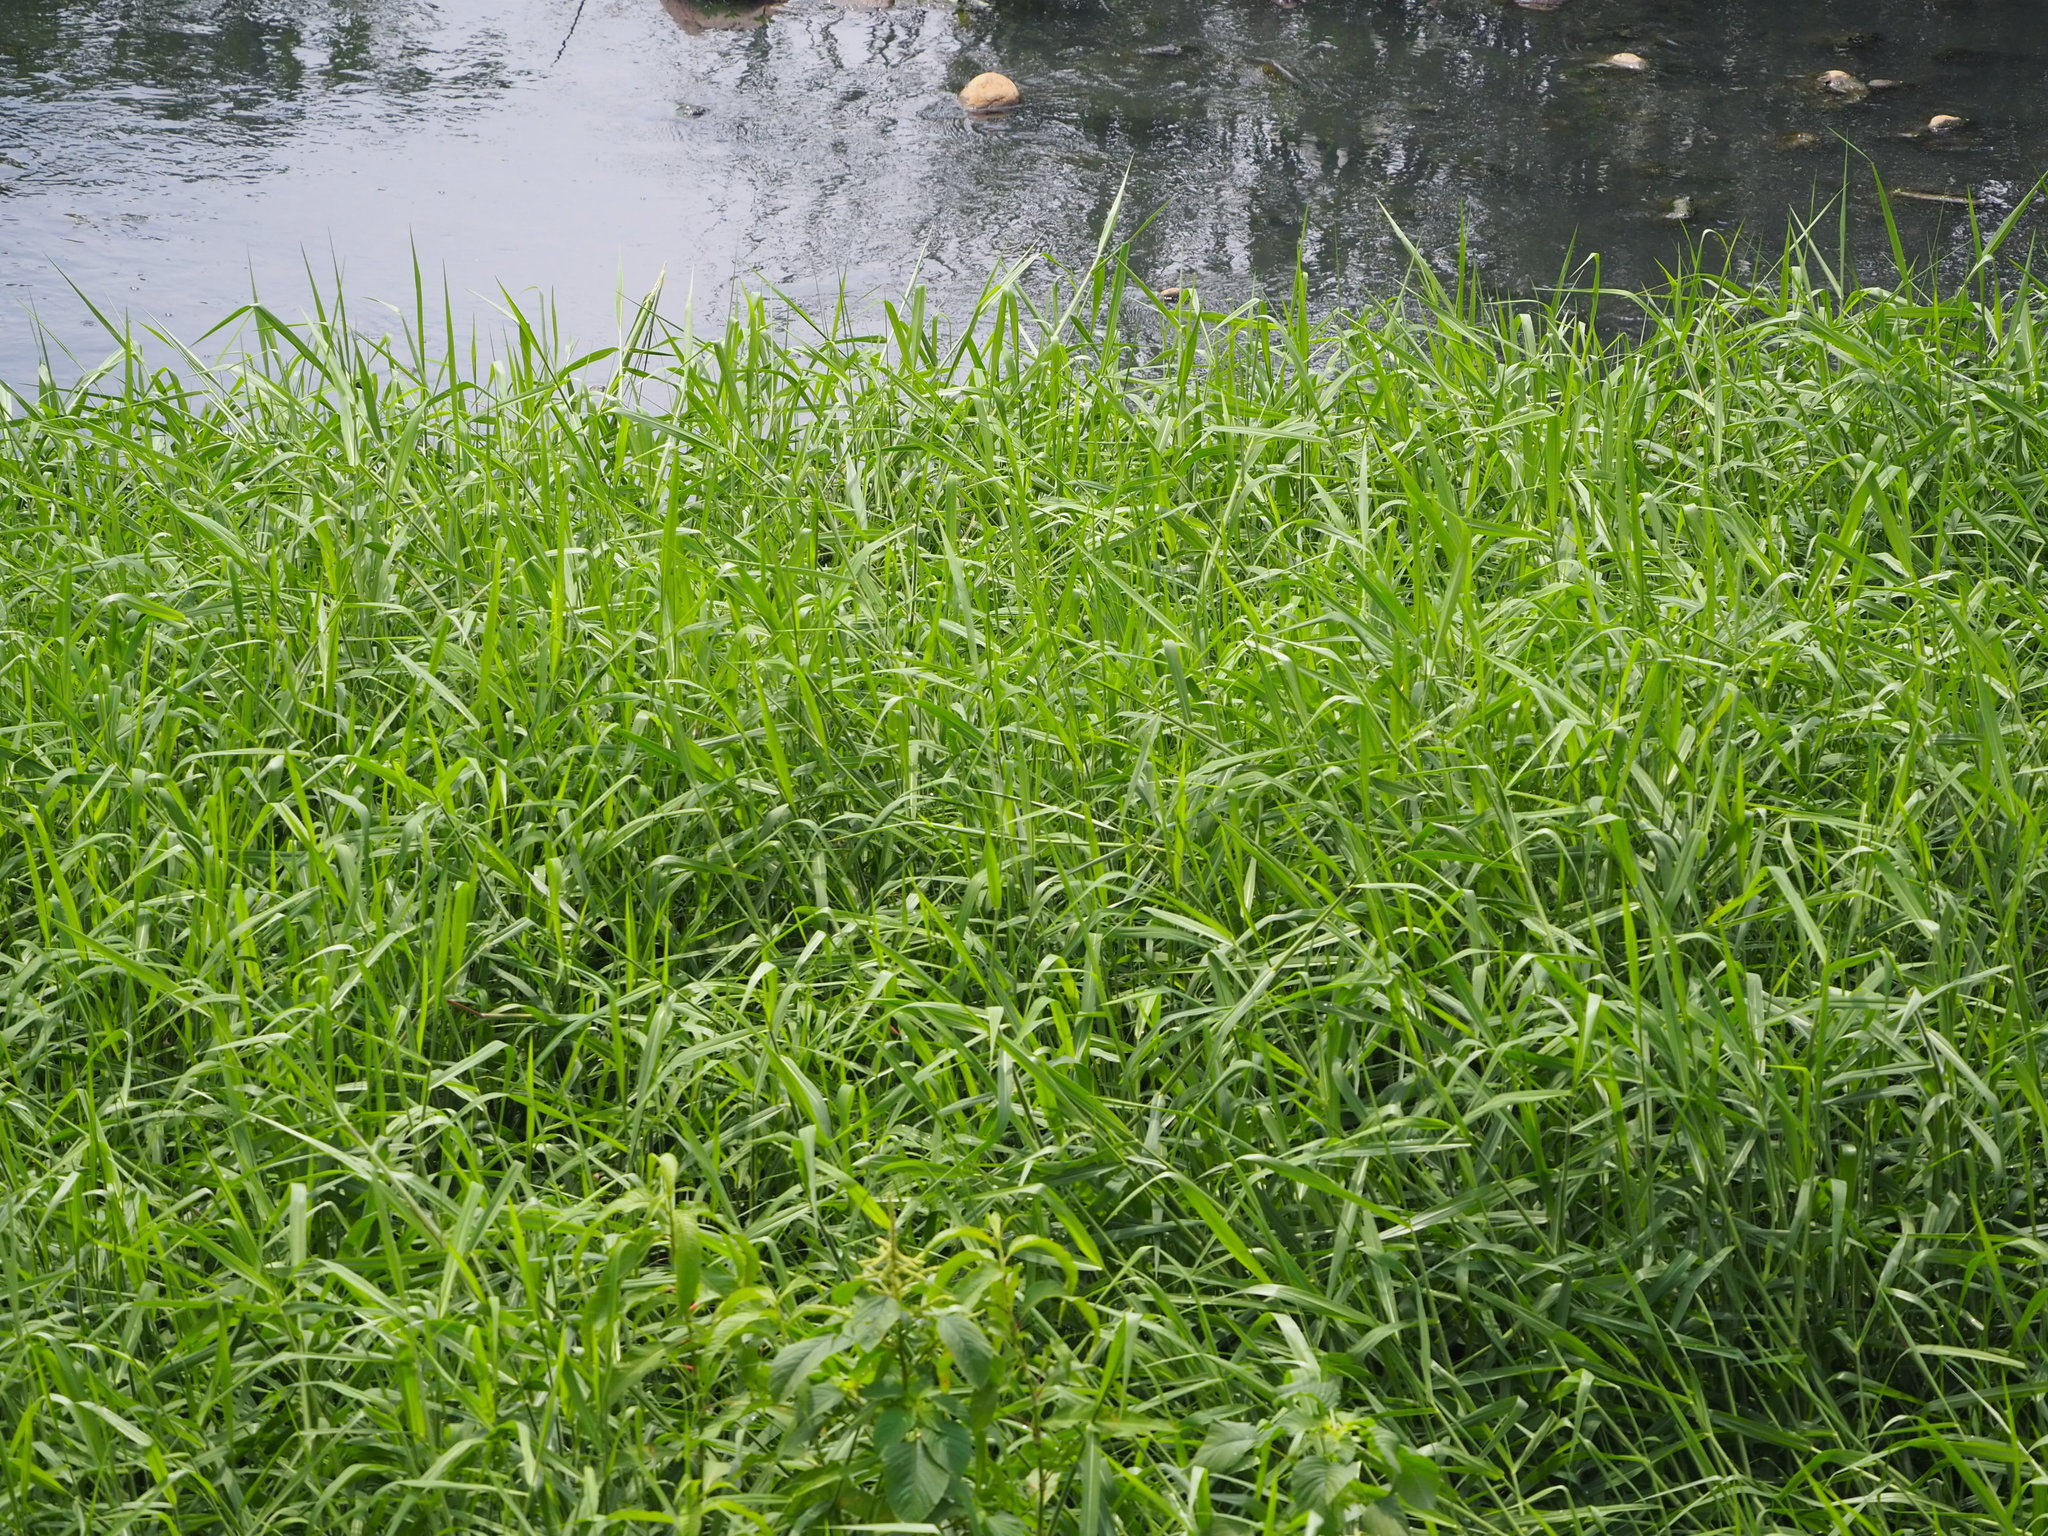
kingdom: Plantae
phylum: Tracheophyta
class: Liliopsida
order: Poales
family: Poaceae
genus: Urochloa
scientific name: Urochloa mutica
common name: Para grass
